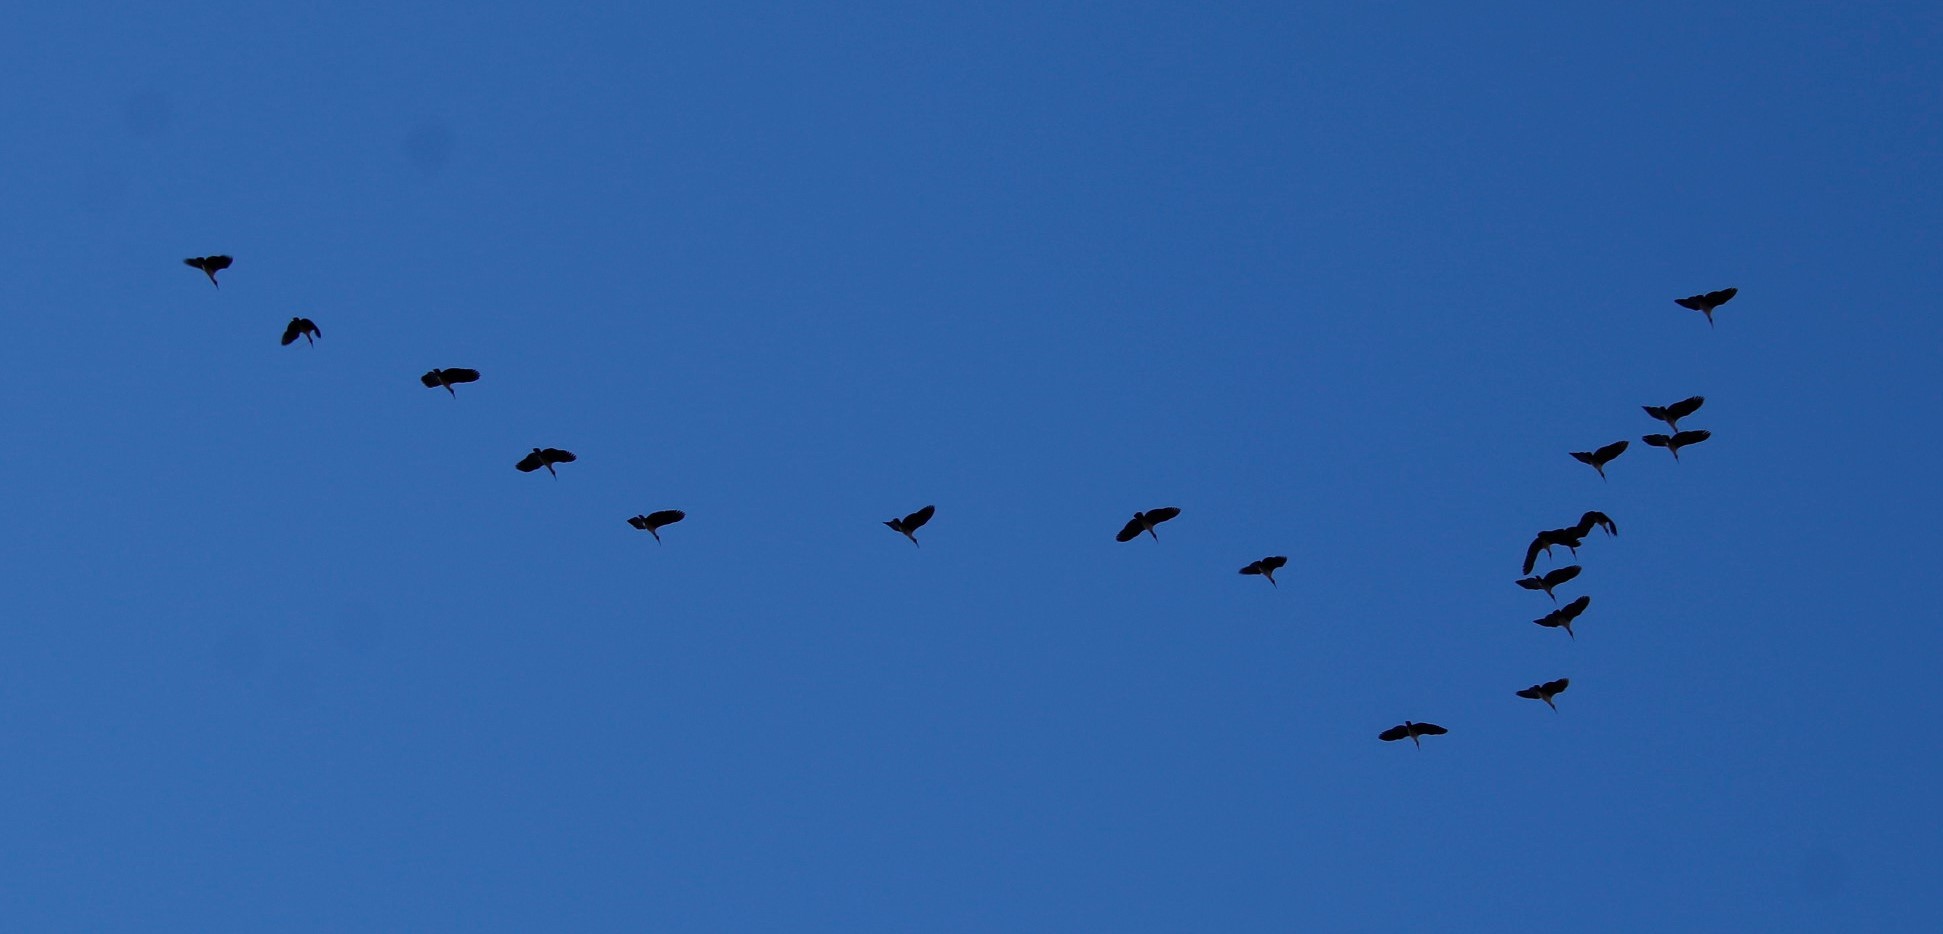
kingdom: Animalia
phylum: Chordata
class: Aves
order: Pelecaniformes
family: Threskiornithidae
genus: Bostrychia
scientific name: Bostrychia hagedash
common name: Hadada ibis
